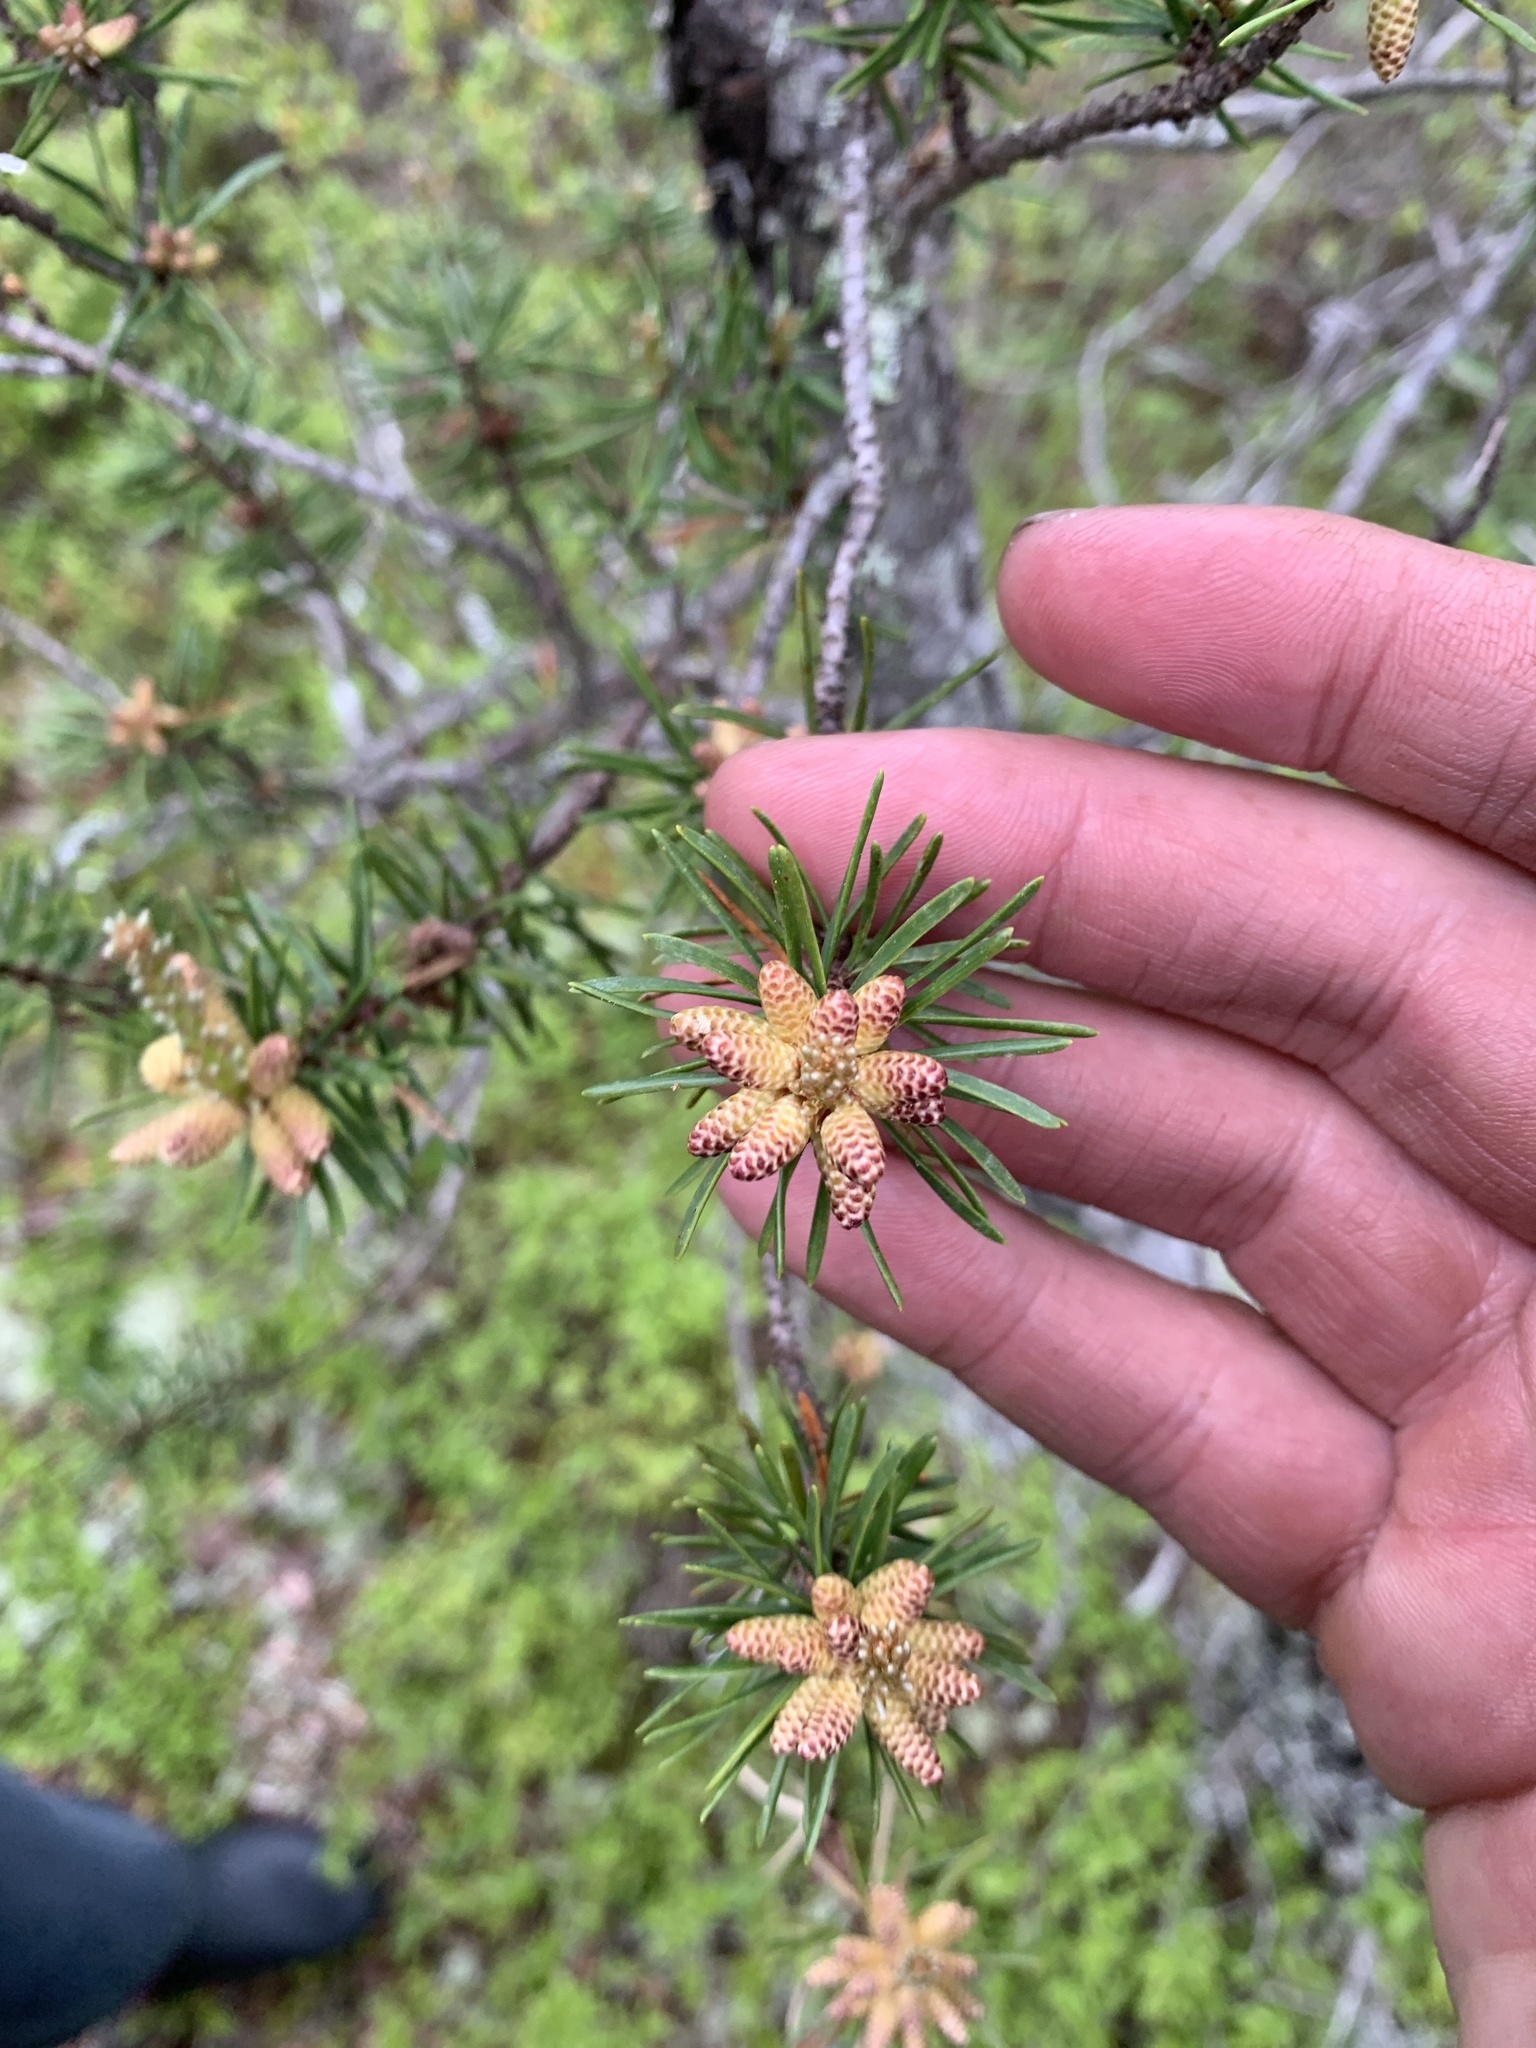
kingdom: Plantae
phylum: Tracheophyta
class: Pinopsida
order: Pinales
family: Pinaceae
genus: Pinus
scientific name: Pinus banksiana
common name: Jack pine
